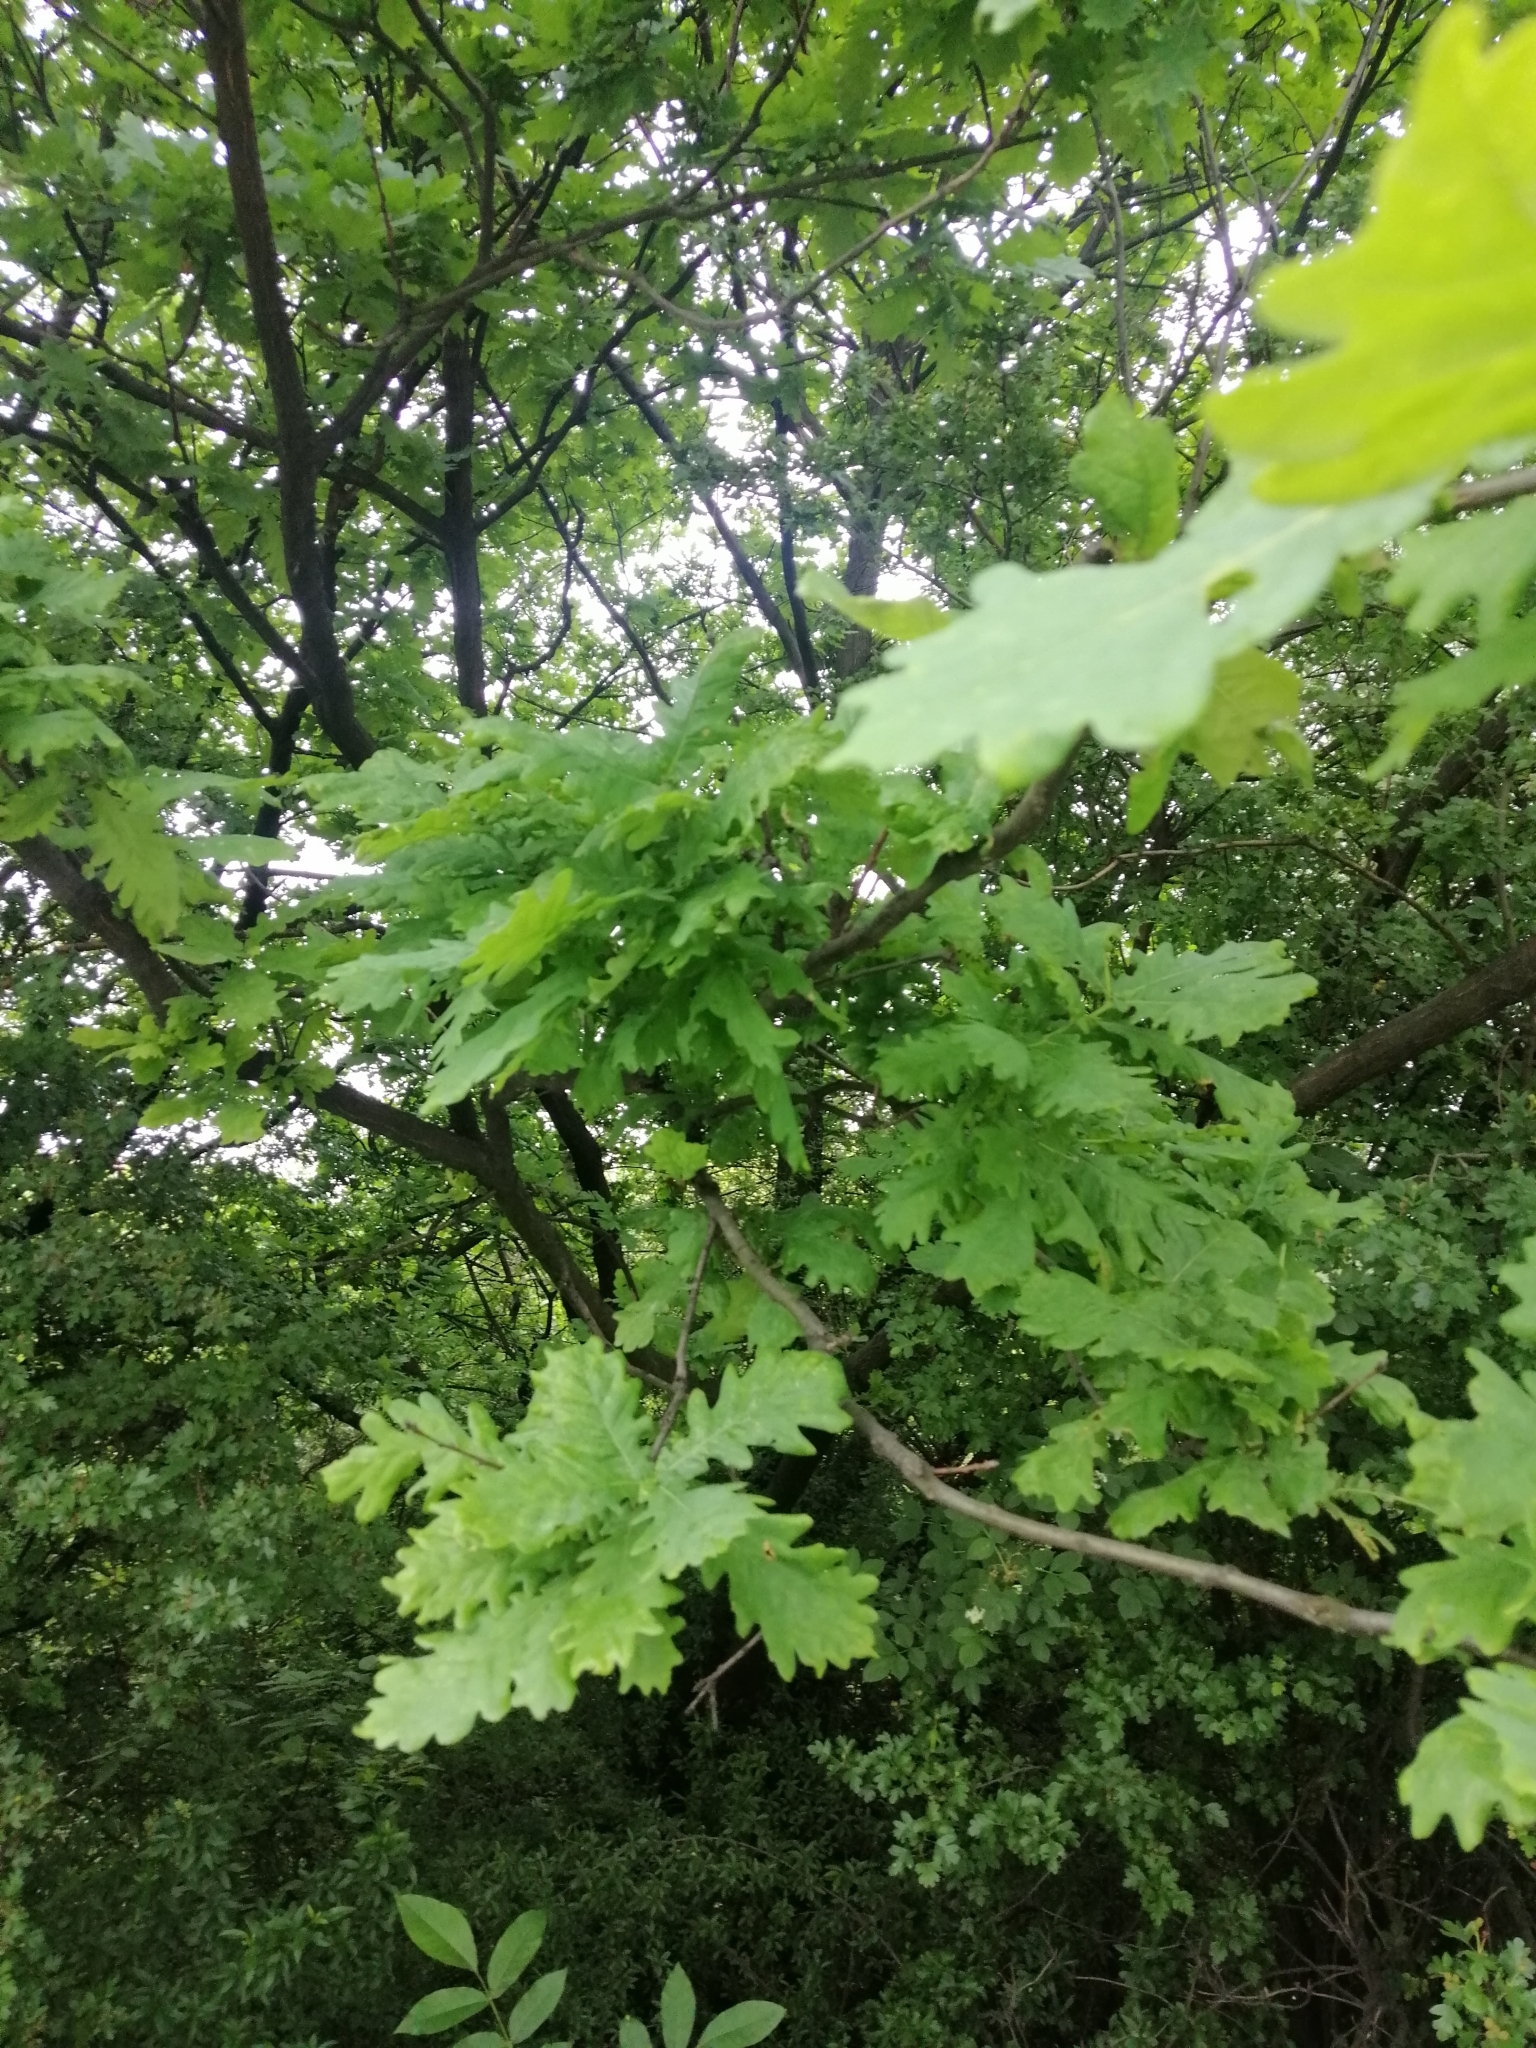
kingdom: Plantae
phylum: Tracheophyta
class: Magnoliopsida
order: Fagales
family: Fagaceae
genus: Quercus
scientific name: Quercus robur
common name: Pedunculate oak
